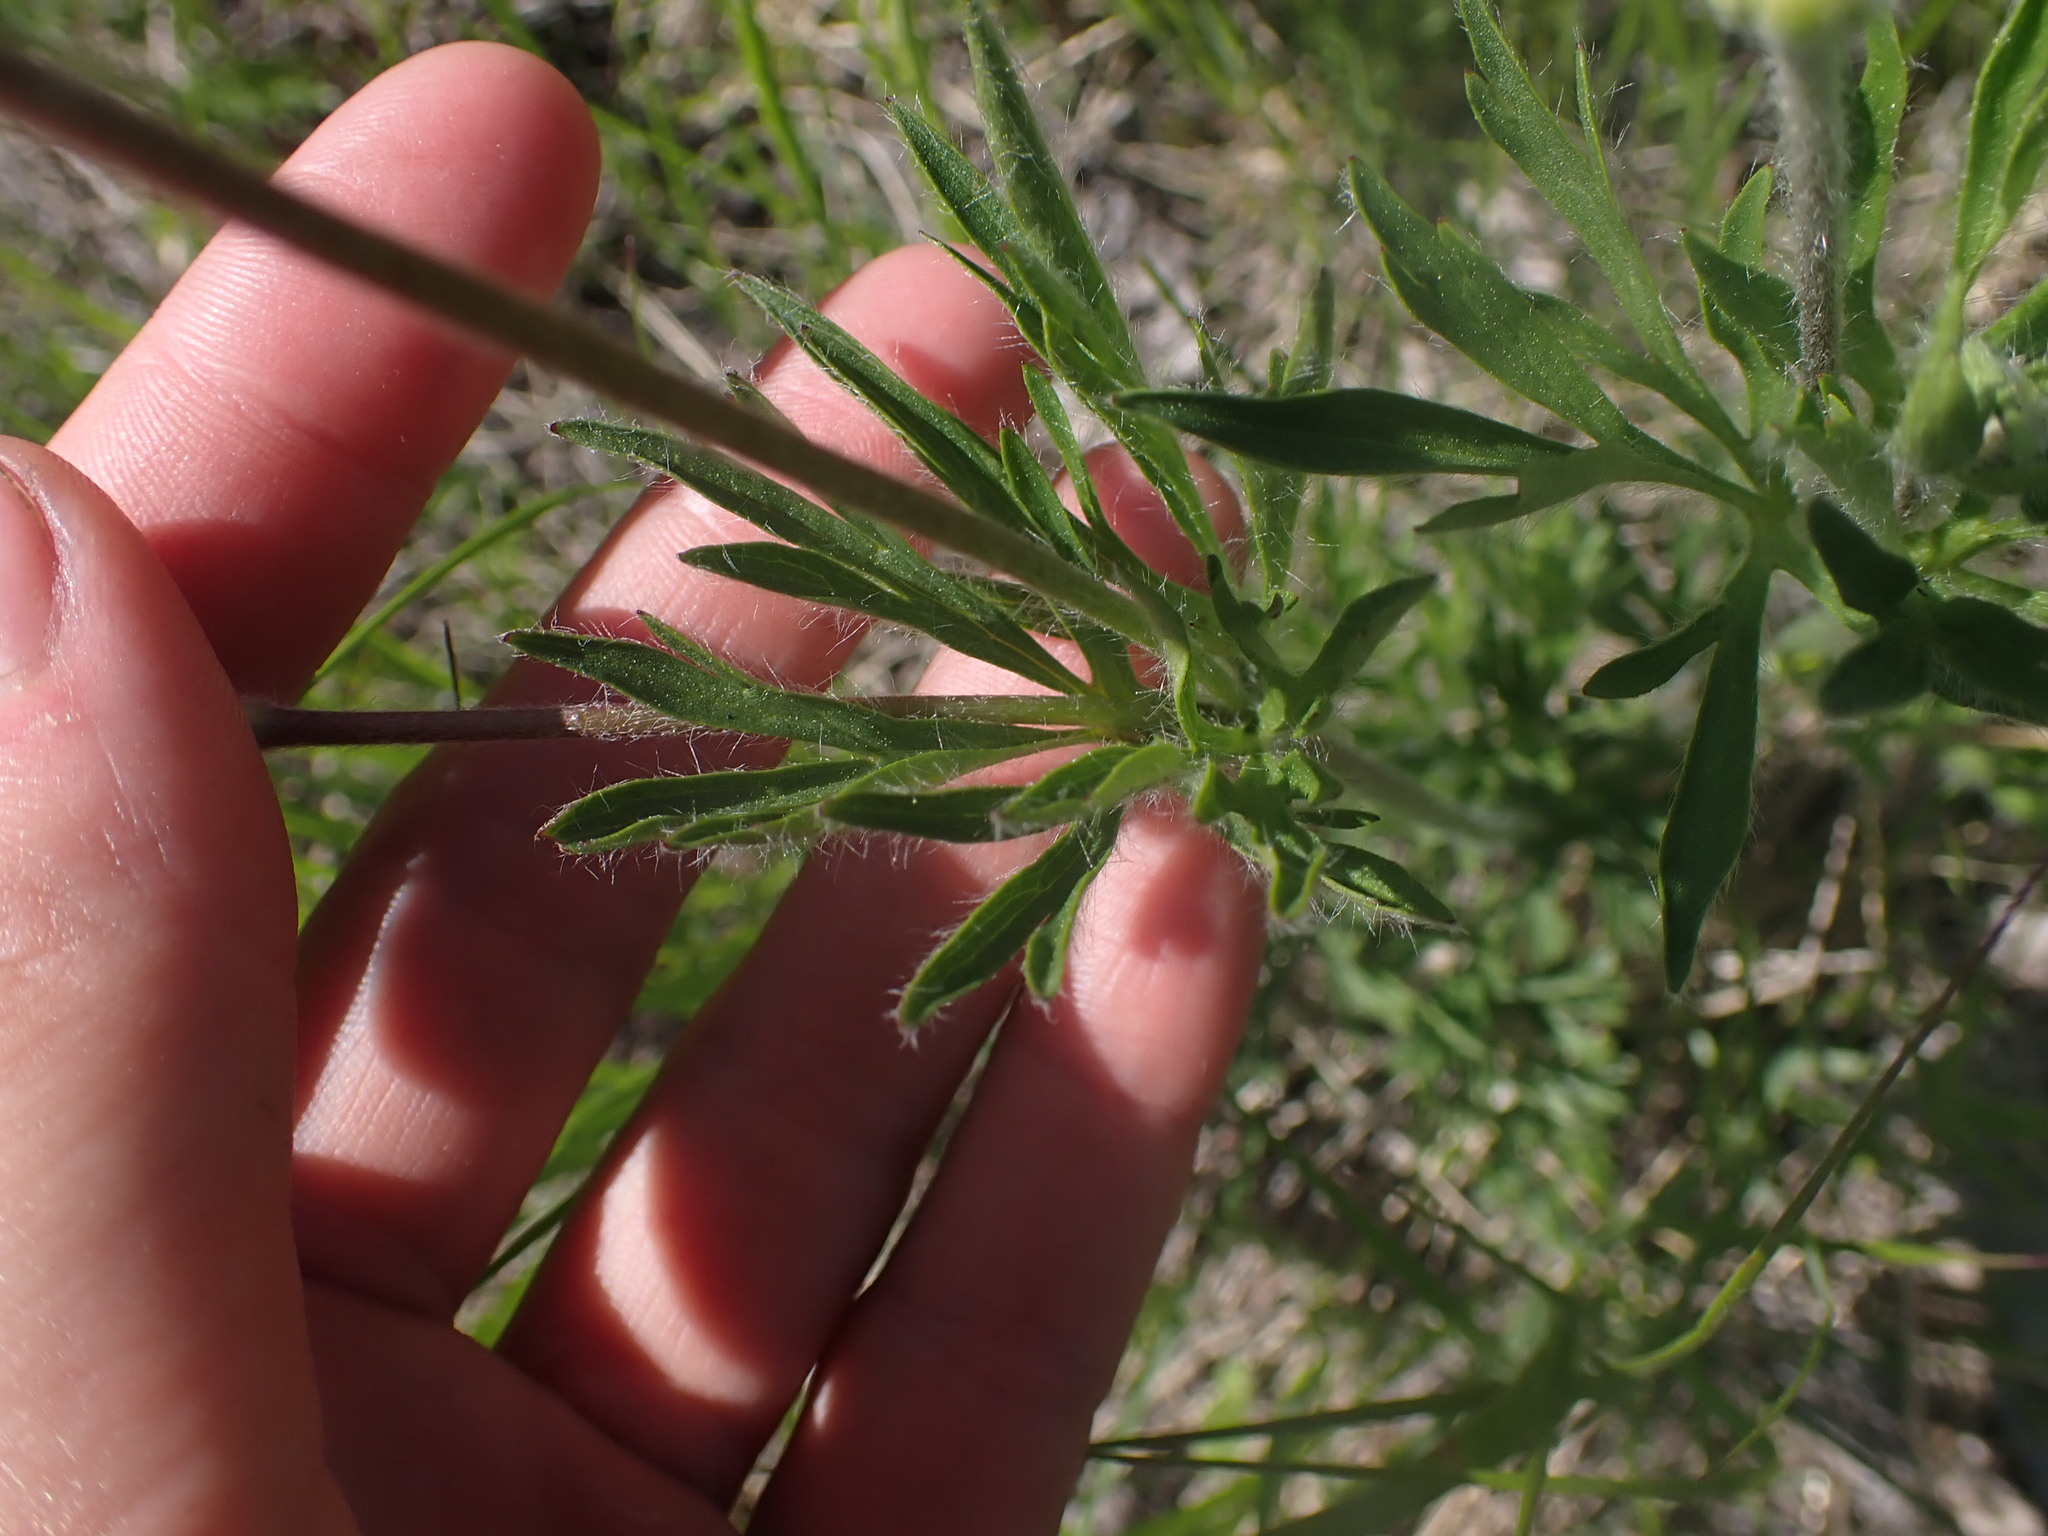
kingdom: Plantae
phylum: Tracheophyta
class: Magnoliopsida
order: Ranunculales
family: Ranunculaceae
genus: Anemone
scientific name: Anemone multifida
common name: Bird's-foot anemone
